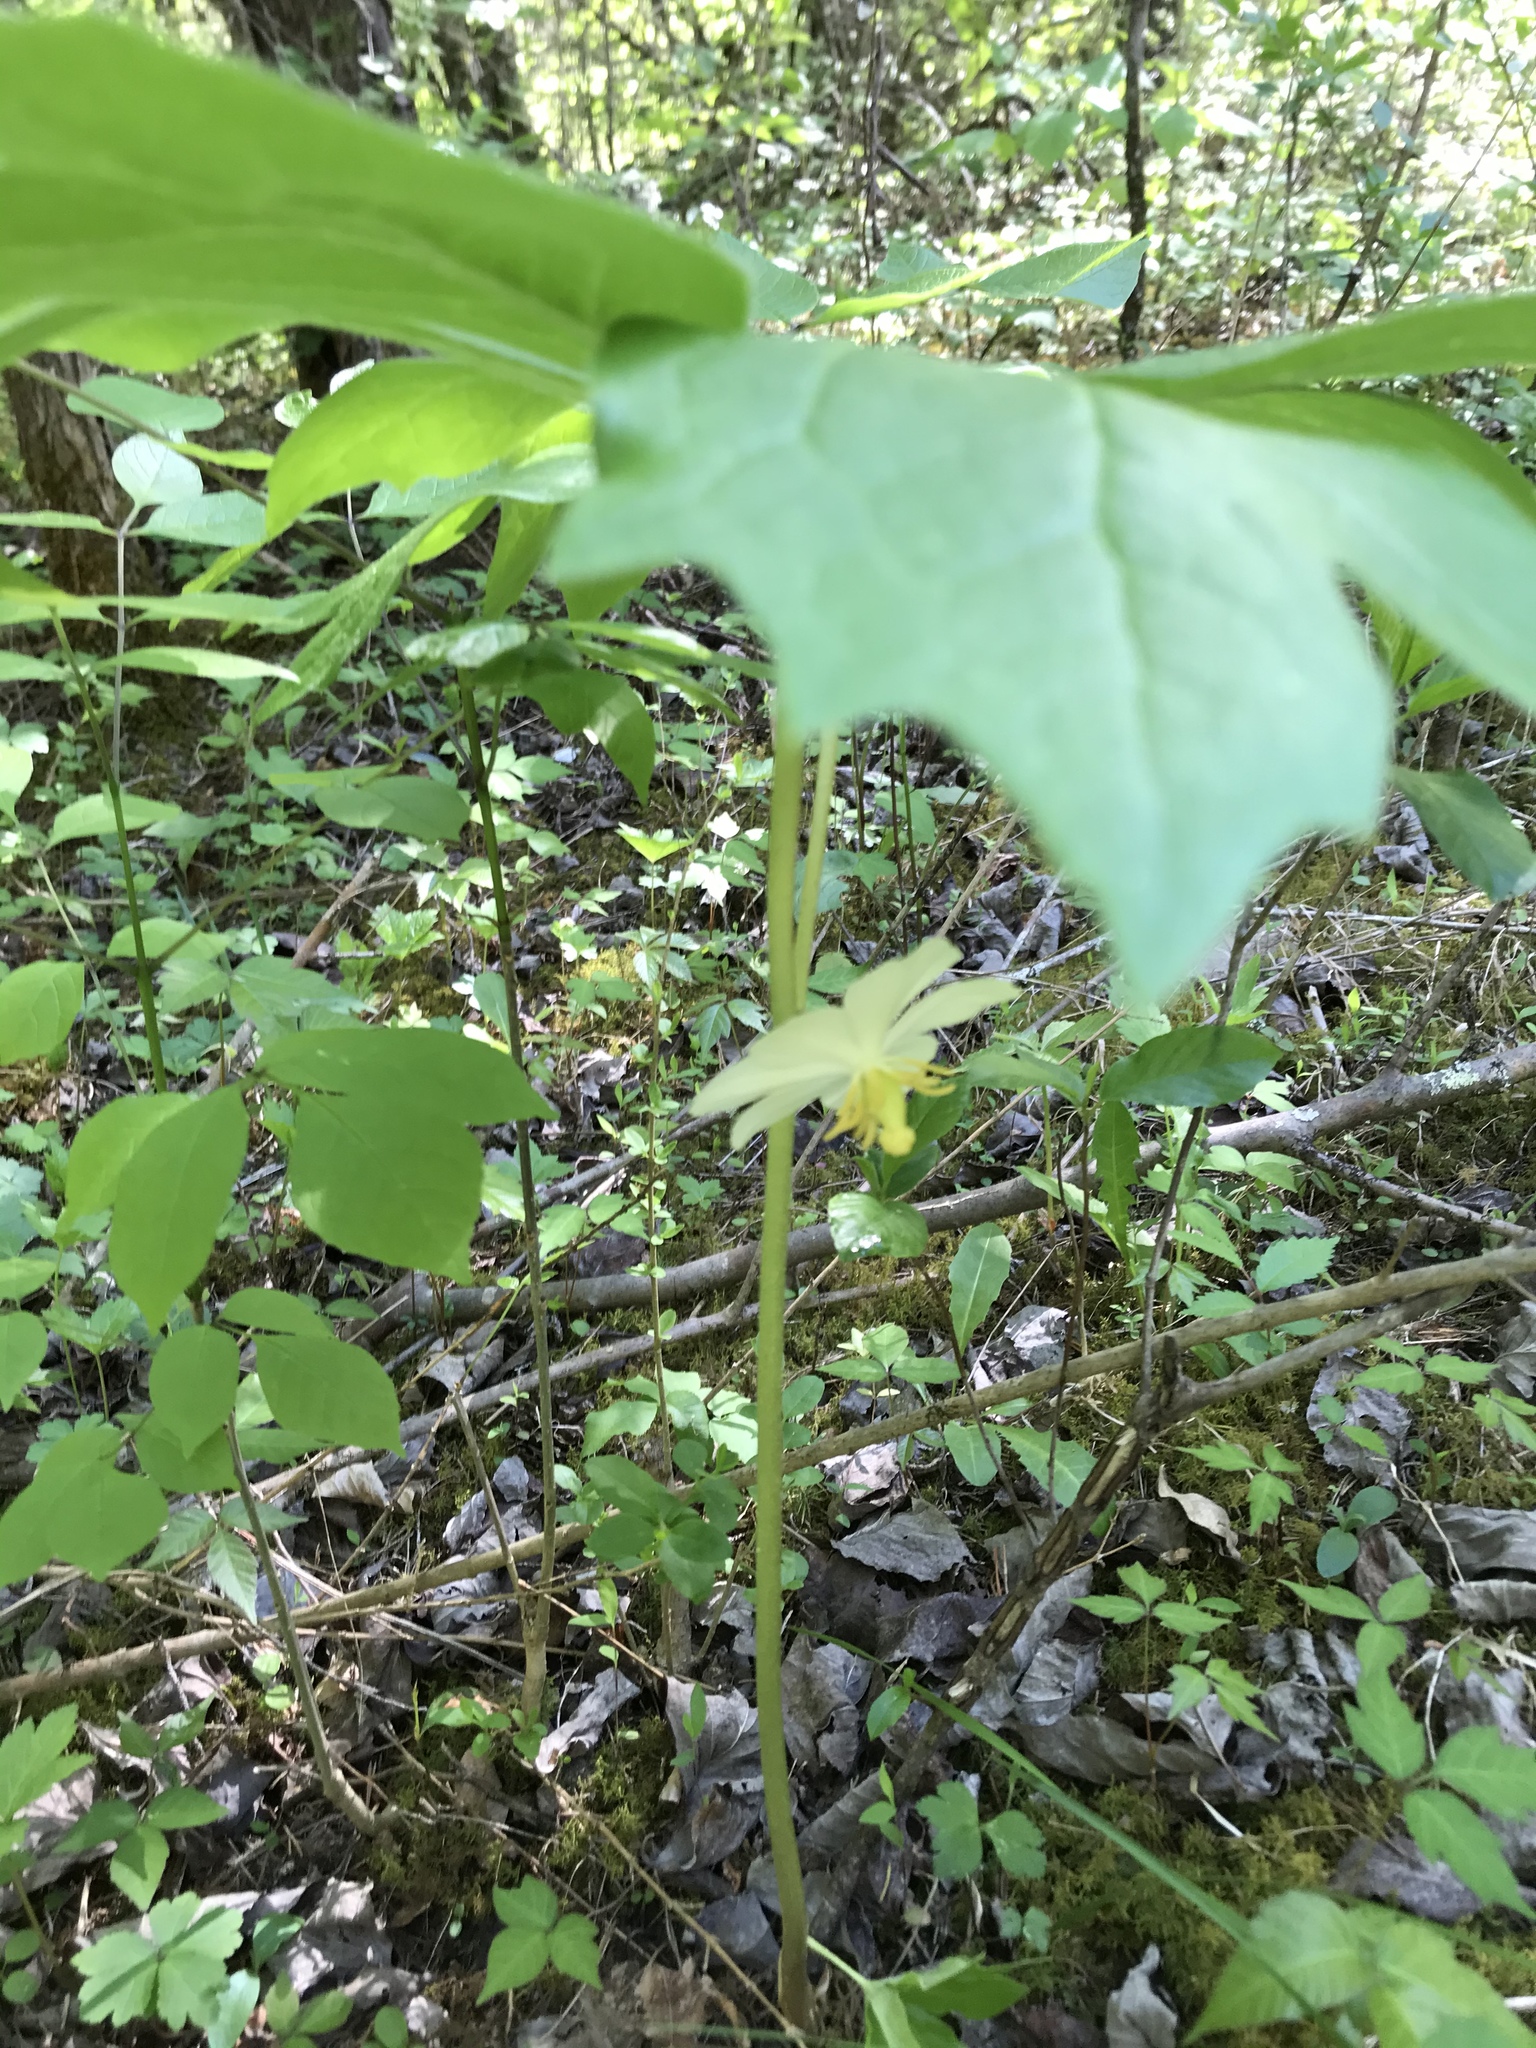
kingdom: Plantae
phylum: Tracheophyta
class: Magnoliopsida
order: Ranunculales
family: Berberidaceae
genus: Podophyllum
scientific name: Podophyllum peltatum
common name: Wild mandrake
